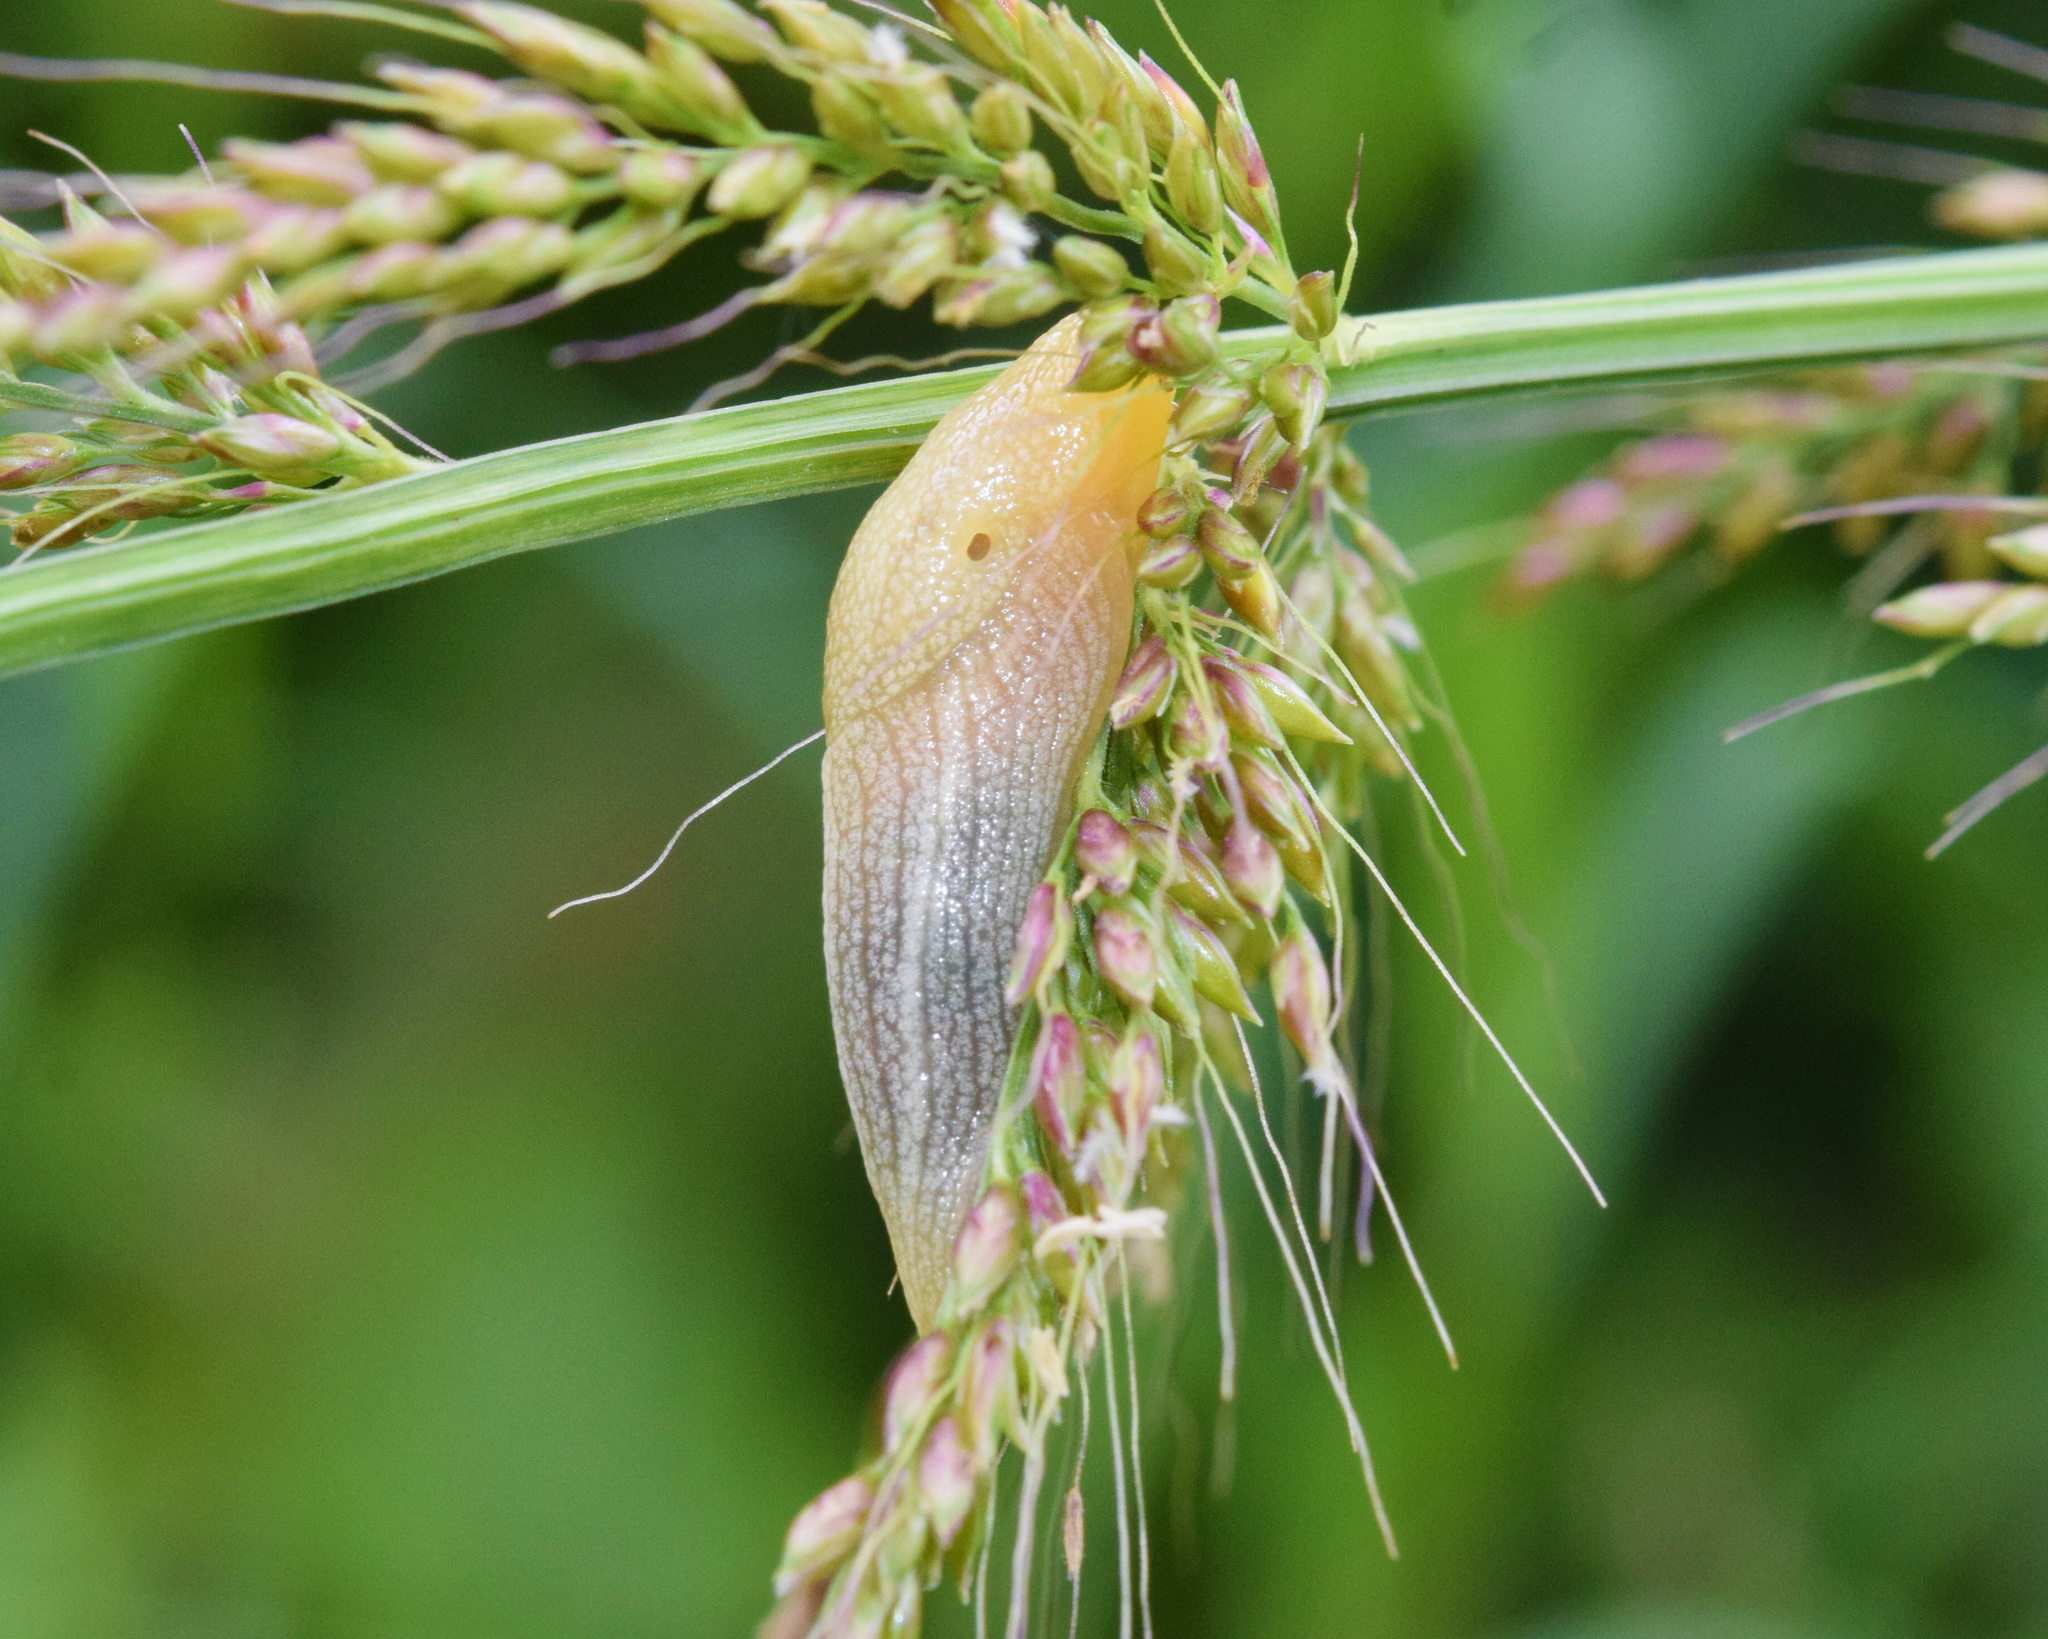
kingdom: Animalia
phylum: Mollusca
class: Gastropoda
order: Stylommatophora
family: Urocyclidae
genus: Elisolimax
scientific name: Elisolimax flavescens
